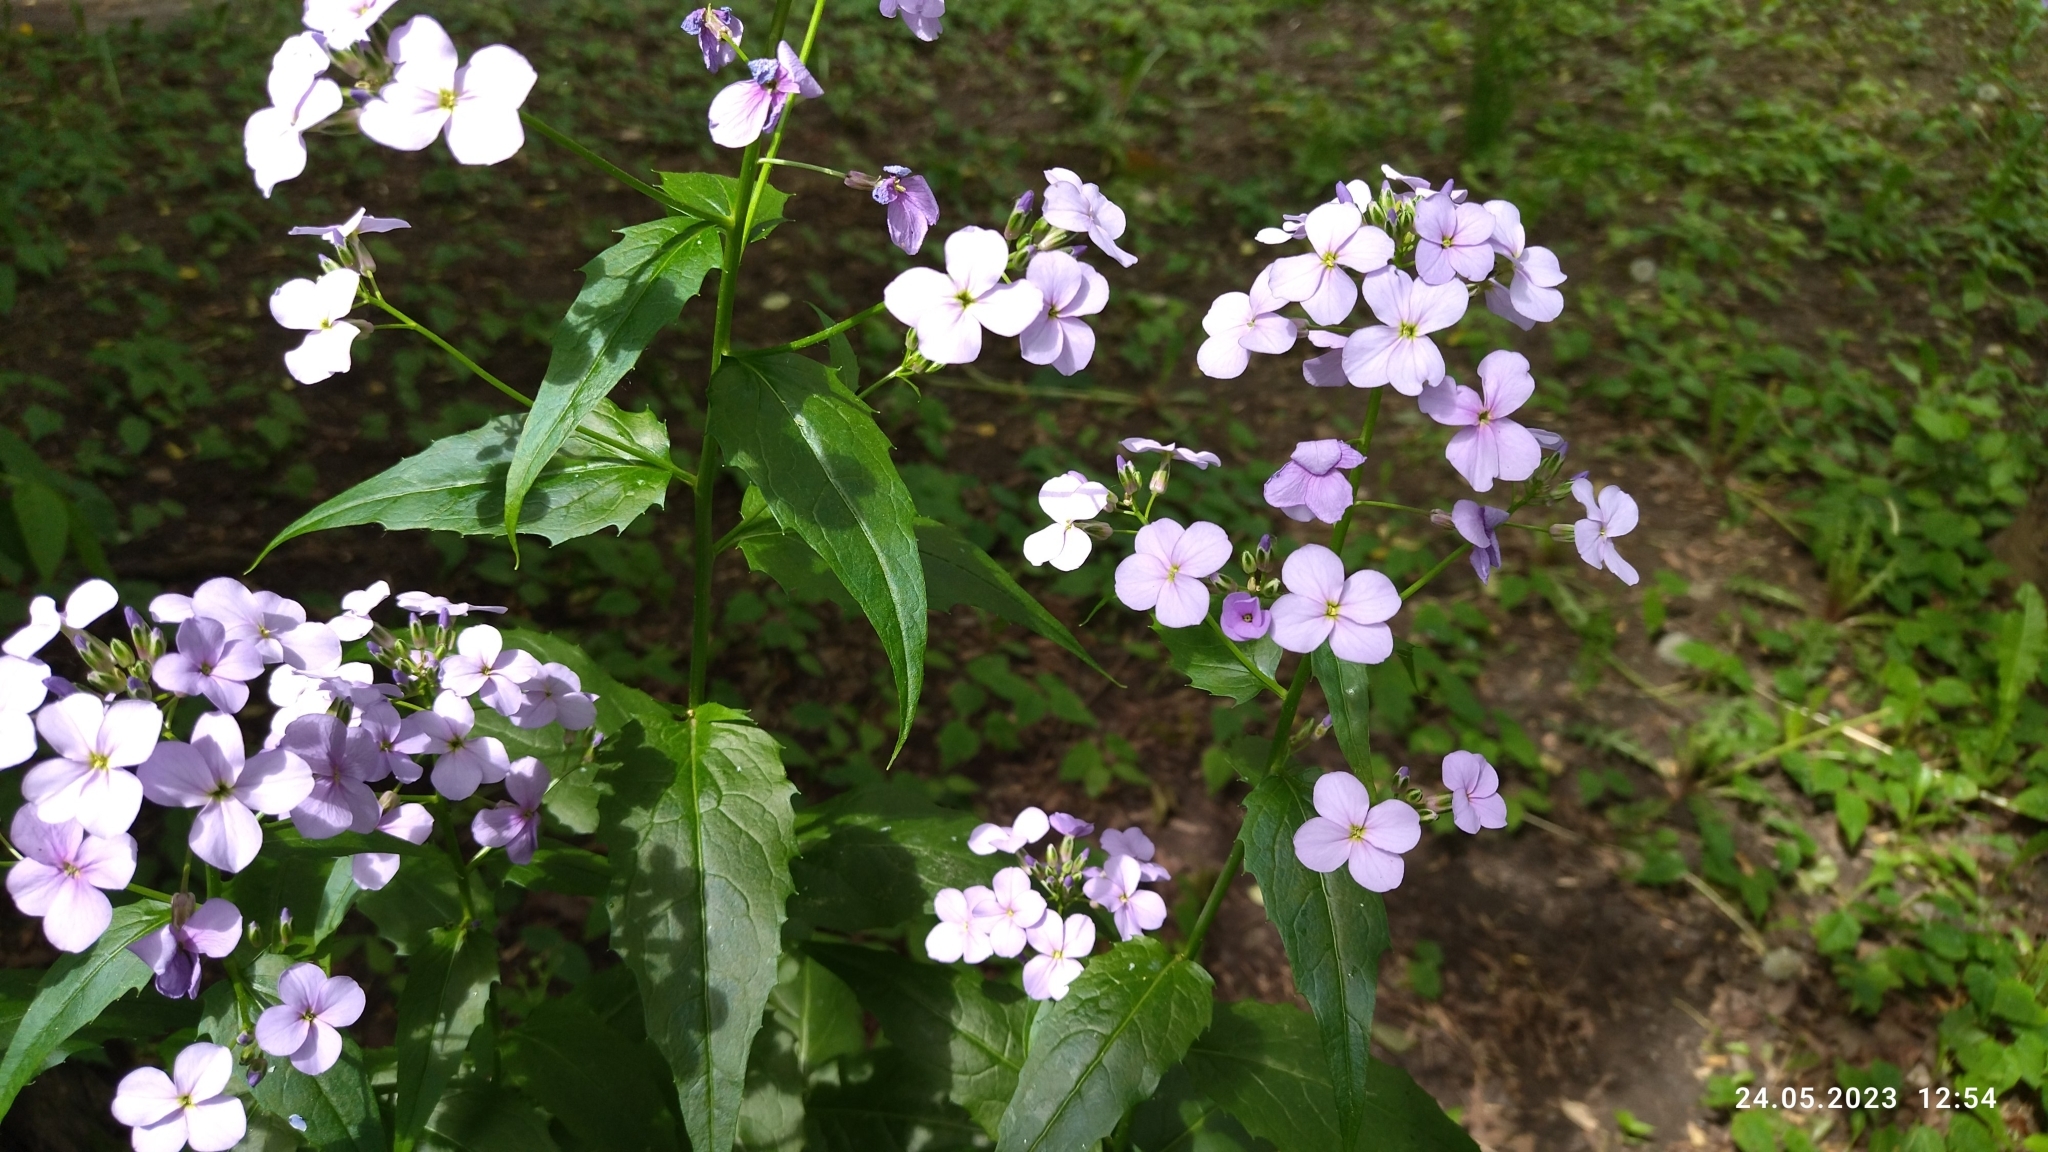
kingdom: Plantae
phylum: Tracheophyta
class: Magnoliopsida
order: Brassicales
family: Brassicaceae
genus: Hesperis
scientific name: Hesperis matronalis
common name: Dame's-violet
